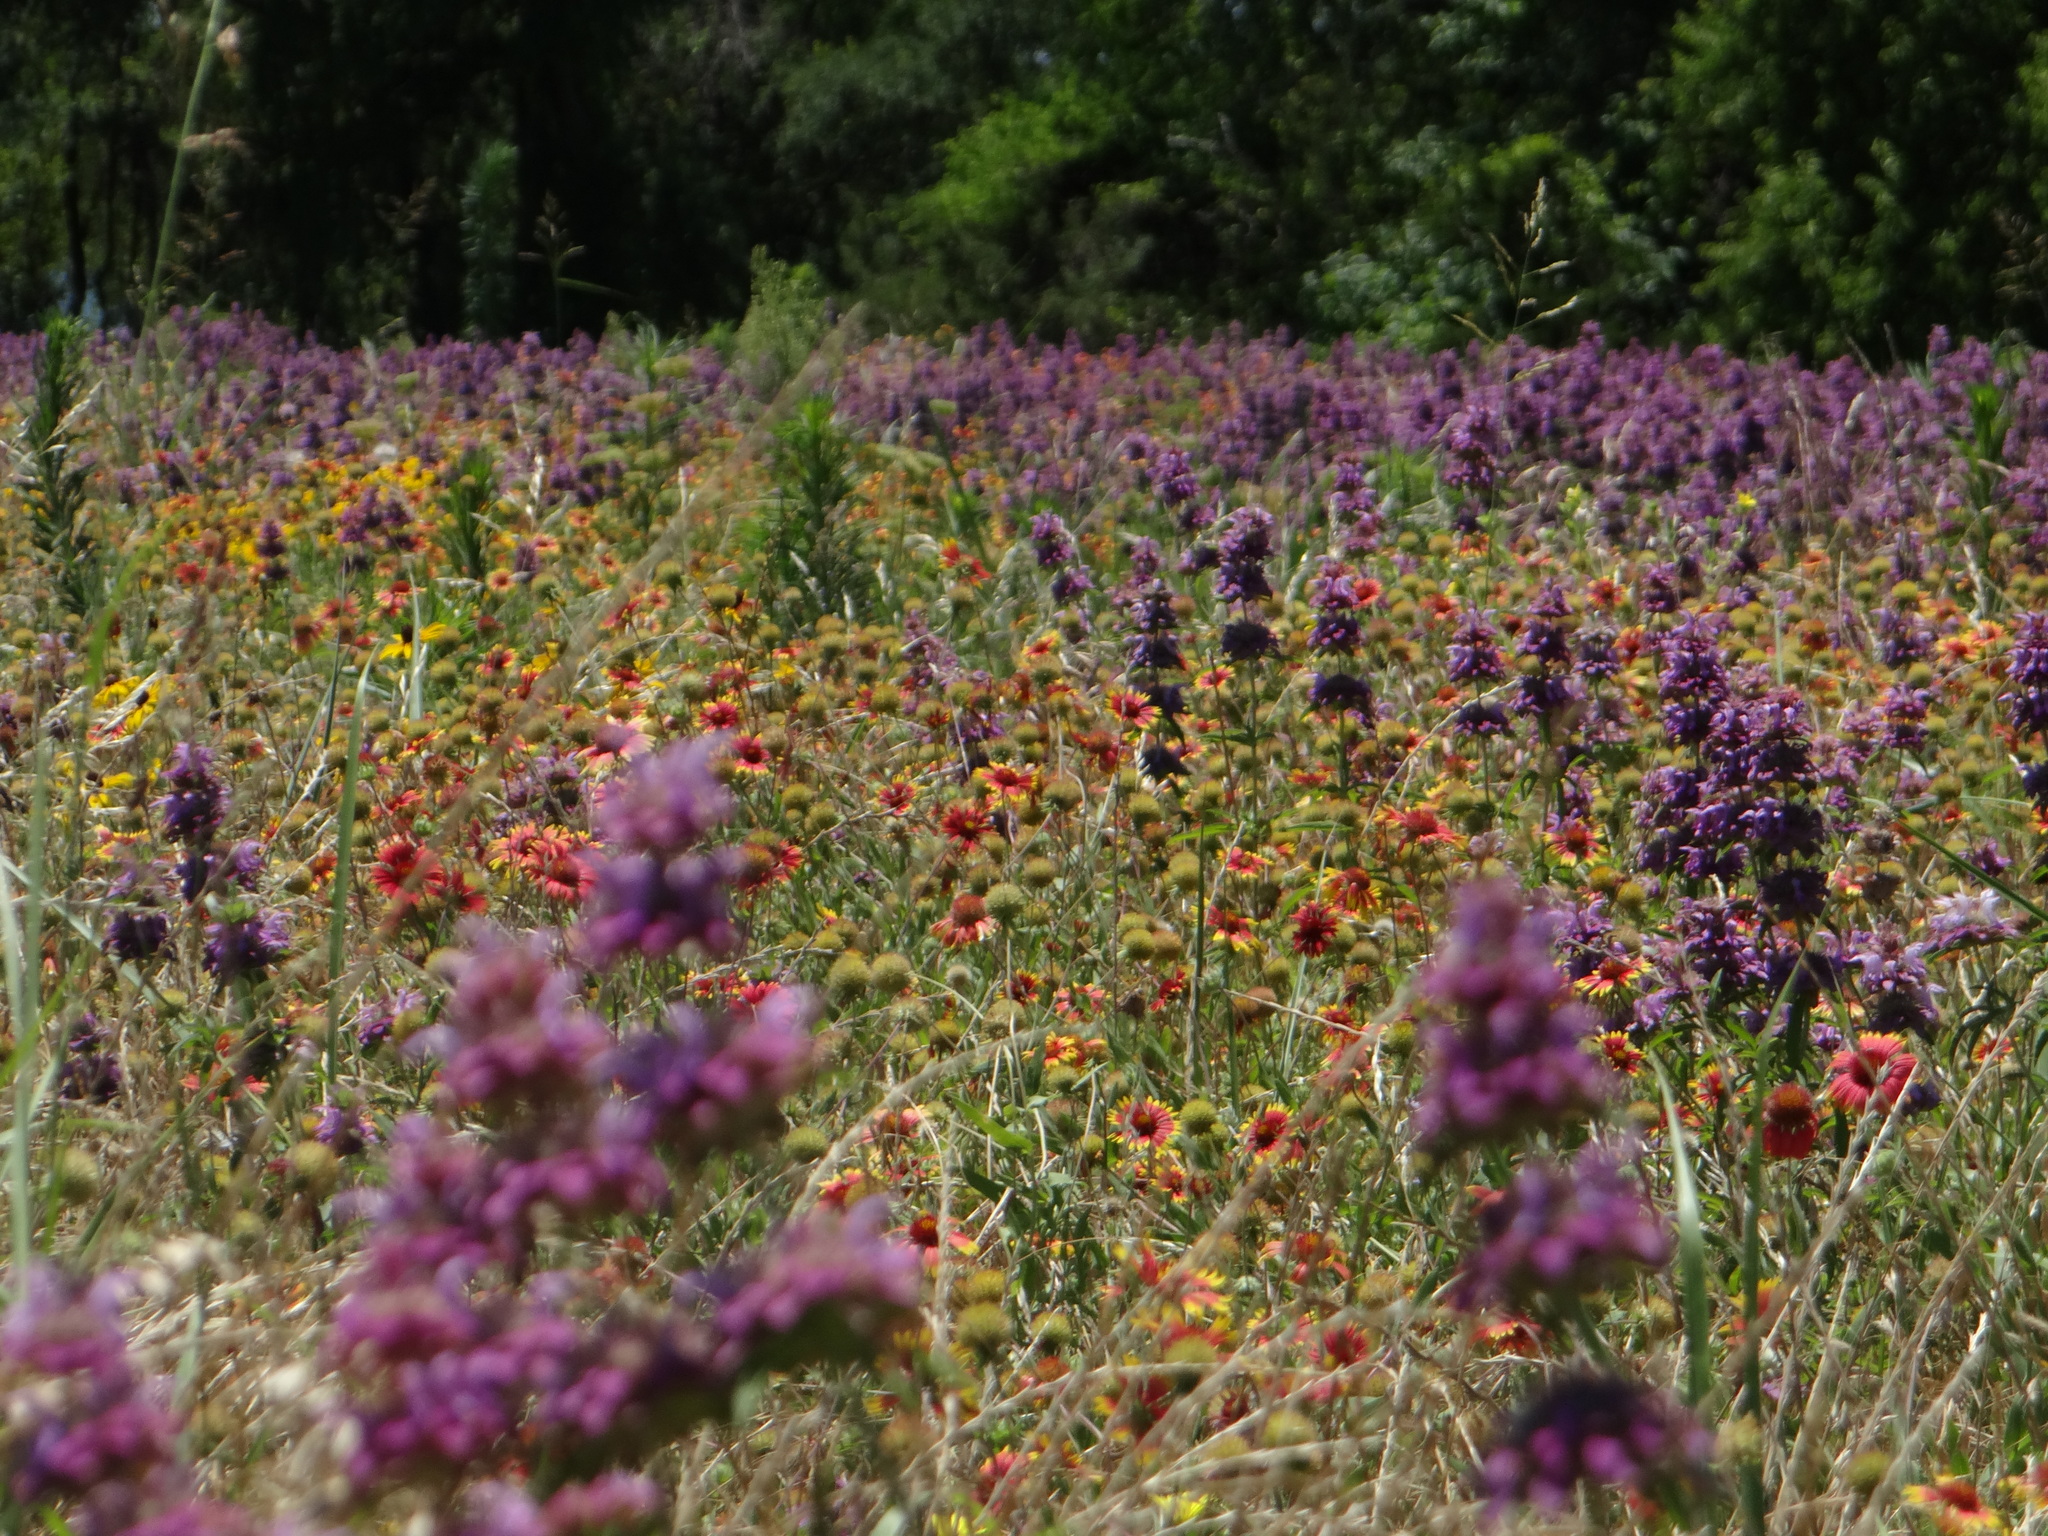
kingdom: Plantae
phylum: Tracheophyta
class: Magnoliopsida
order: Lamiales
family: Lamiaceae
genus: Monarda
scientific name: Monarda citriodora
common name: Lemon beebalm
